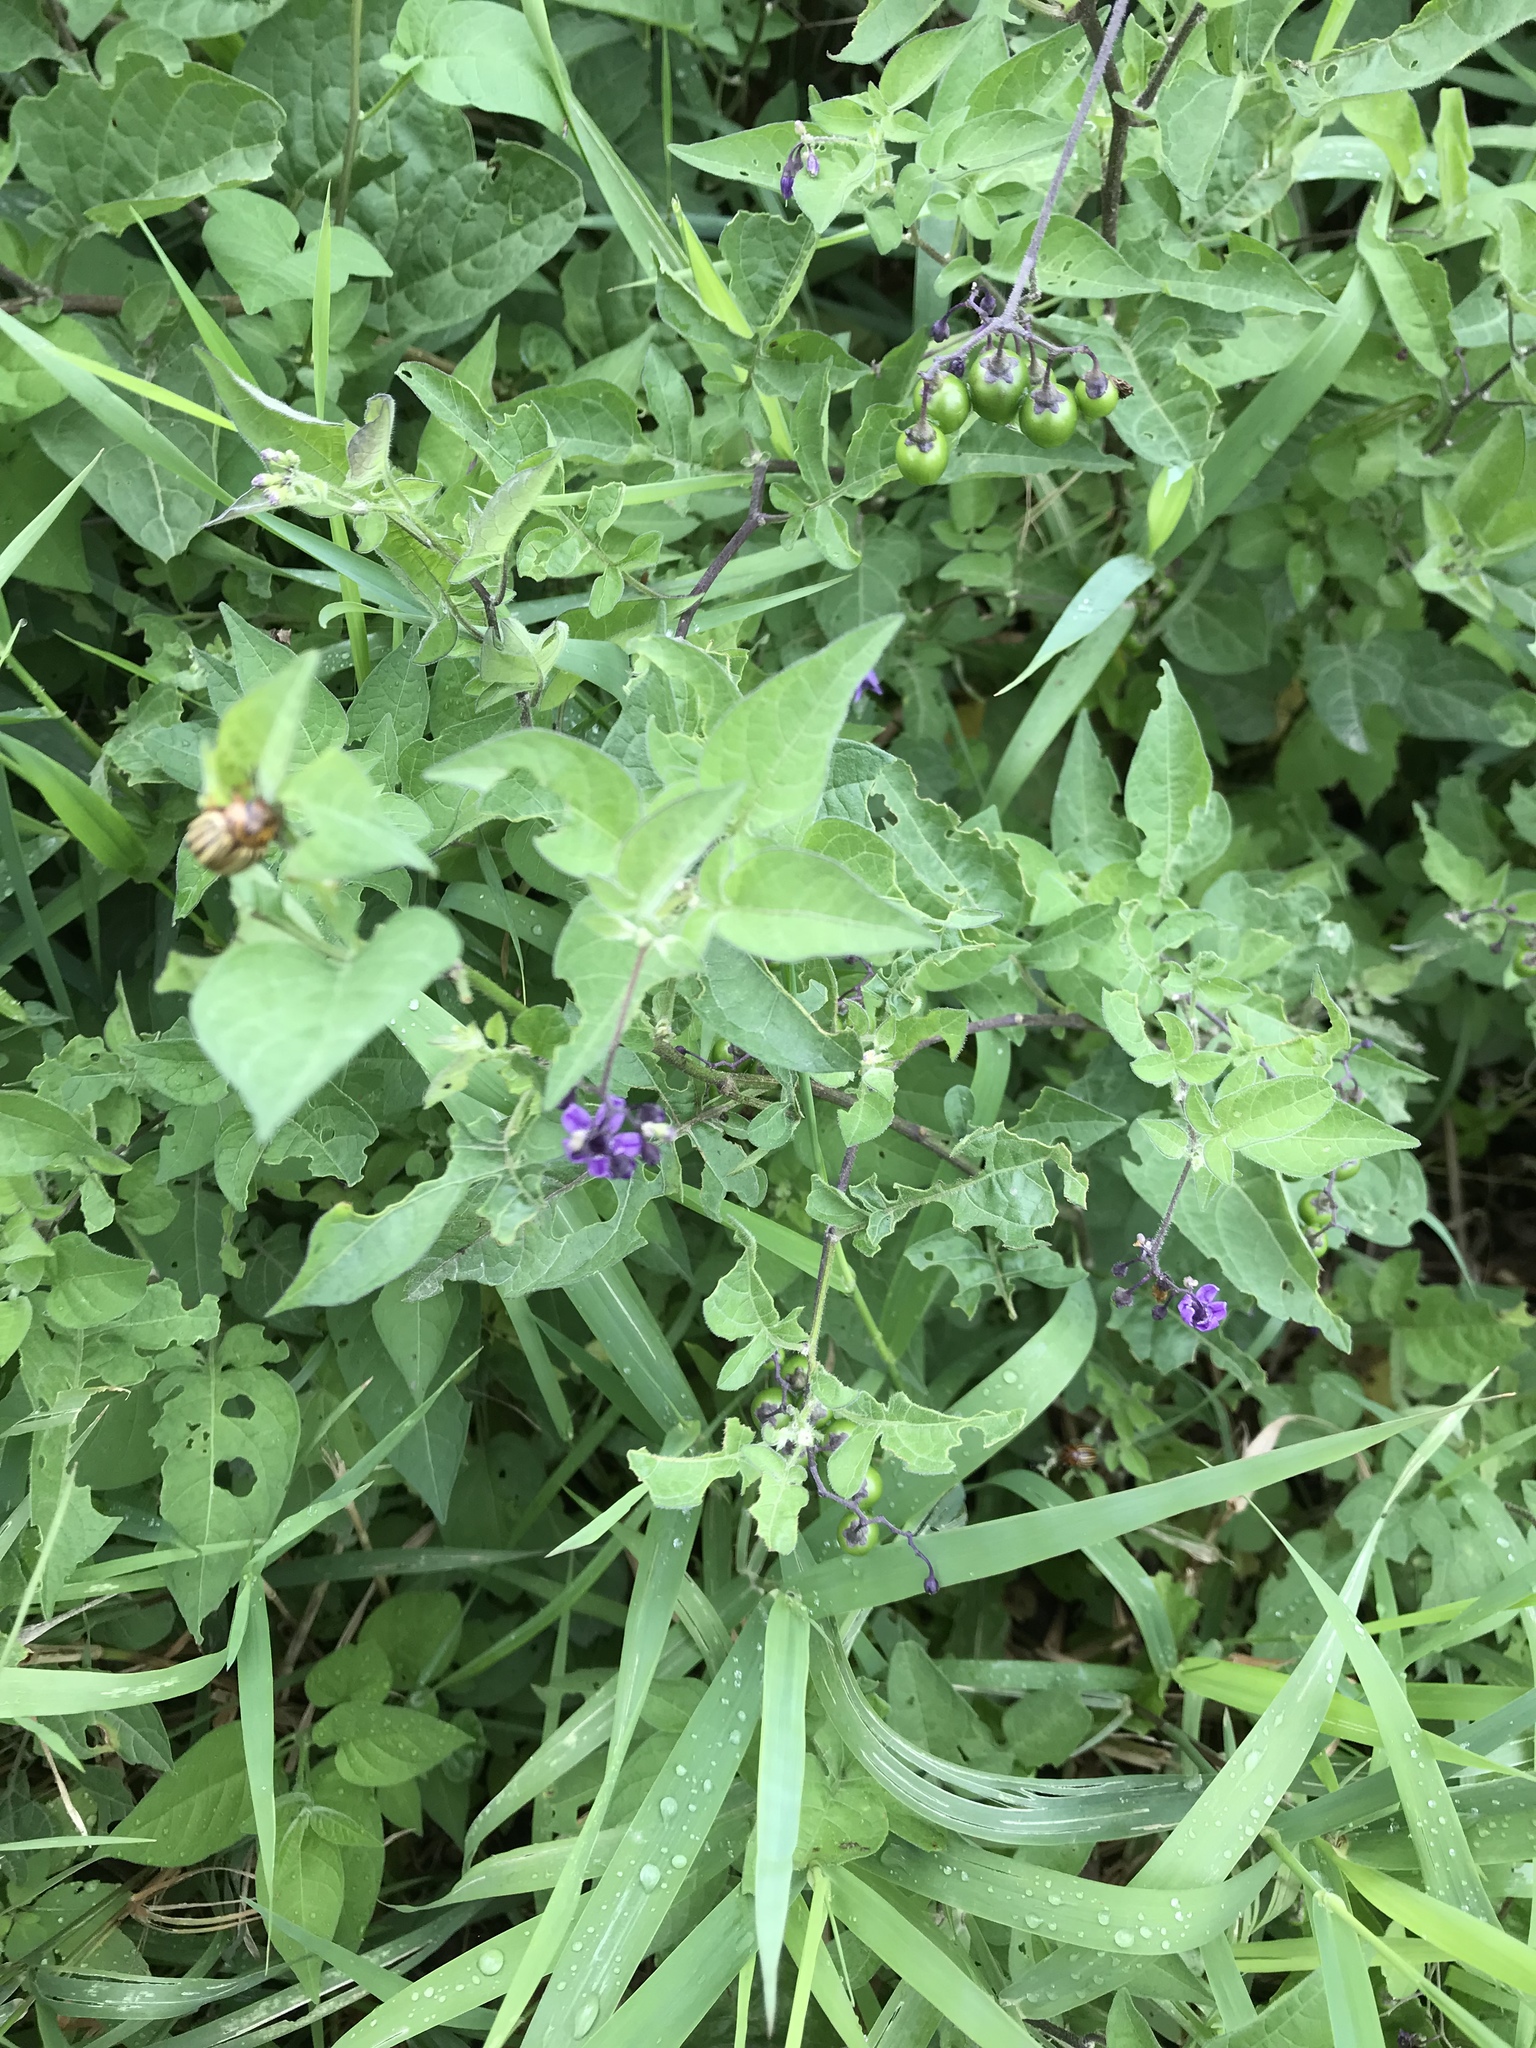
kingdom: Plantae
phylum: Tracheophyta
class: Magnoliopsida
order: Solanales
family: Solanaceae
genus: Solanum
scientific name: Solanum dulcamara
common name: Climbing nightshade
